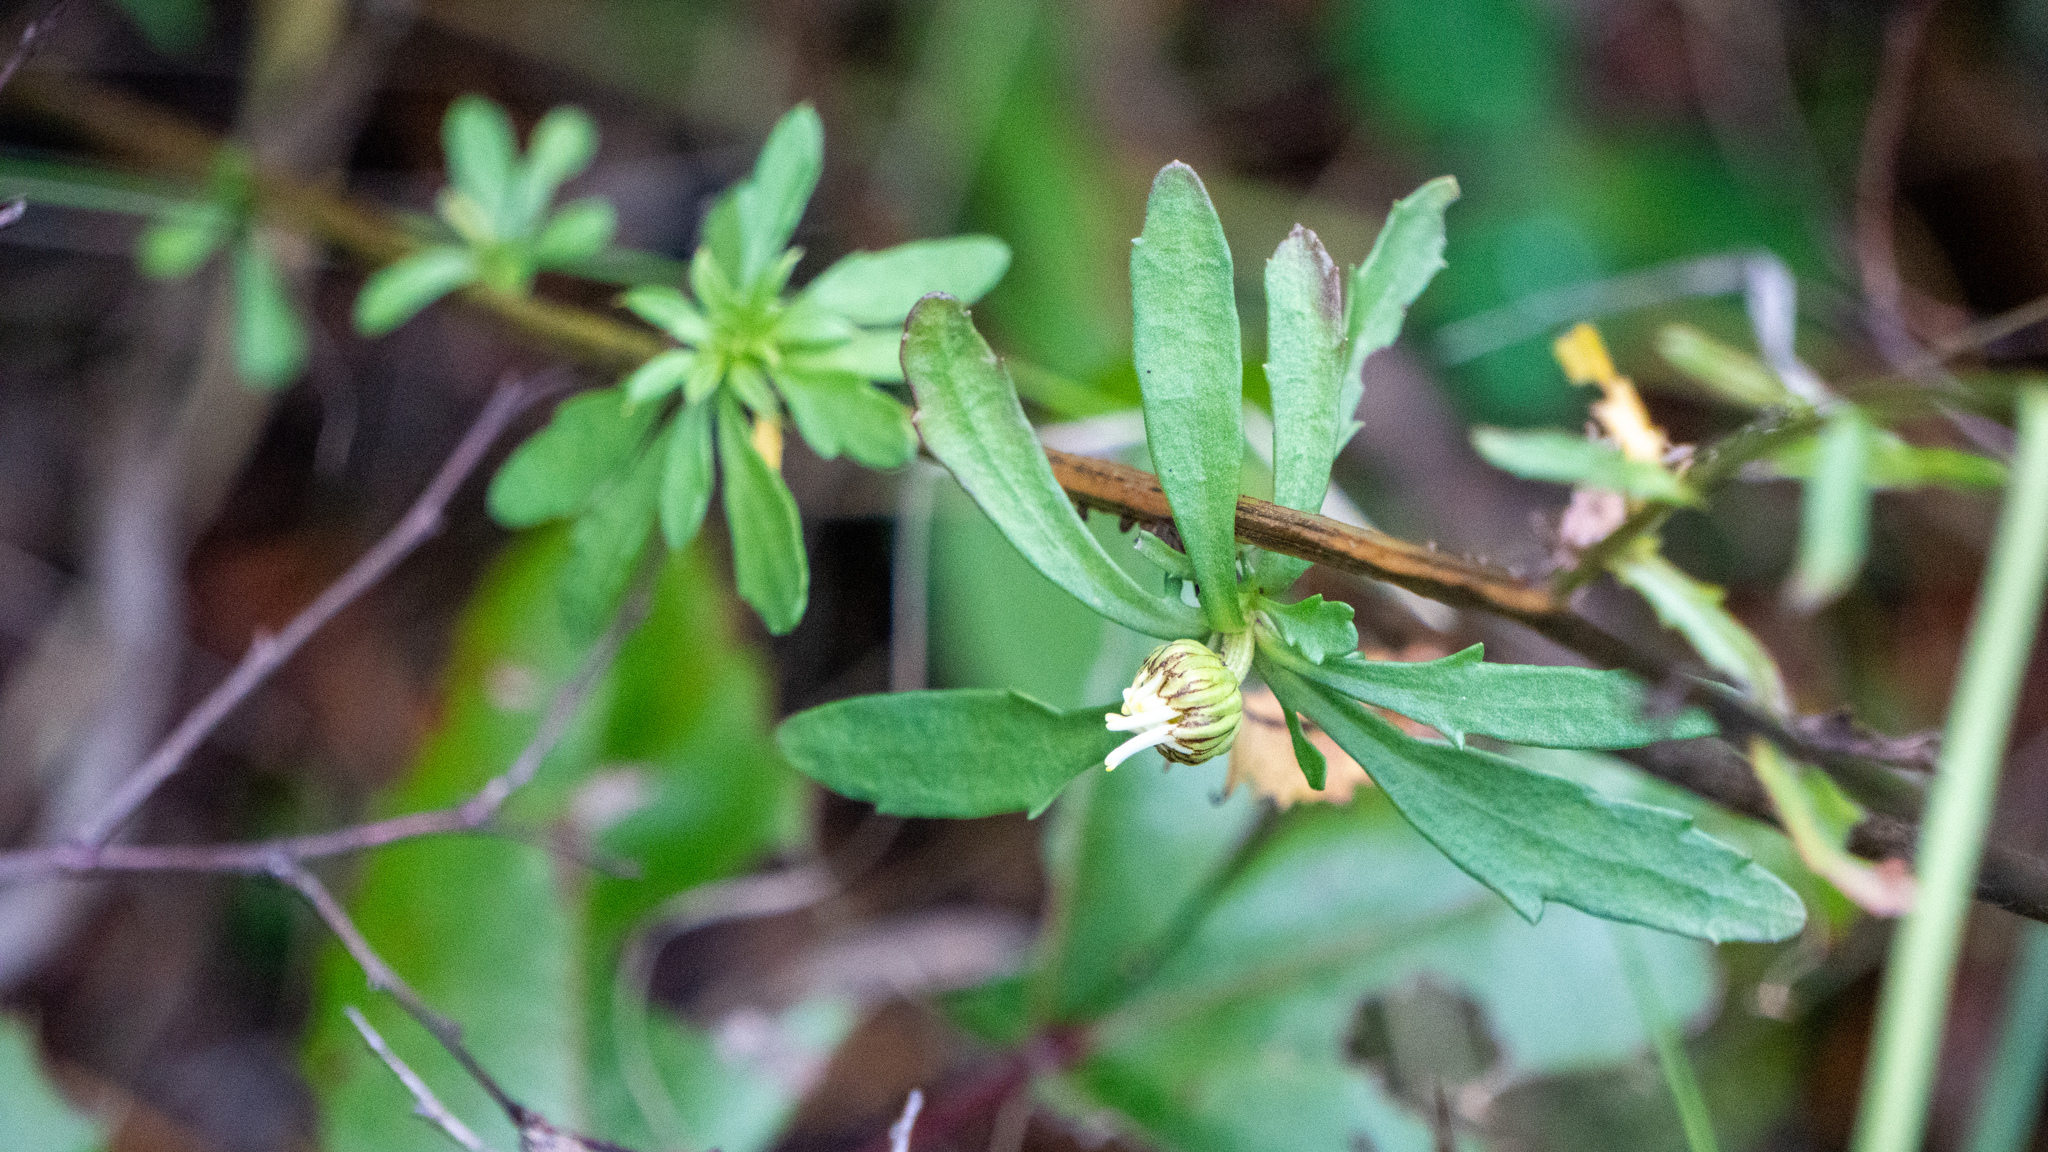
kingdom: Plantae
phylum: Tracheophyta
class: Magnoliopsida
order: Asterales
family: Asteraceae
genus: Leucanthemum
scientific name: Leucanthemum vulgare
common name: Oxeye daisy
